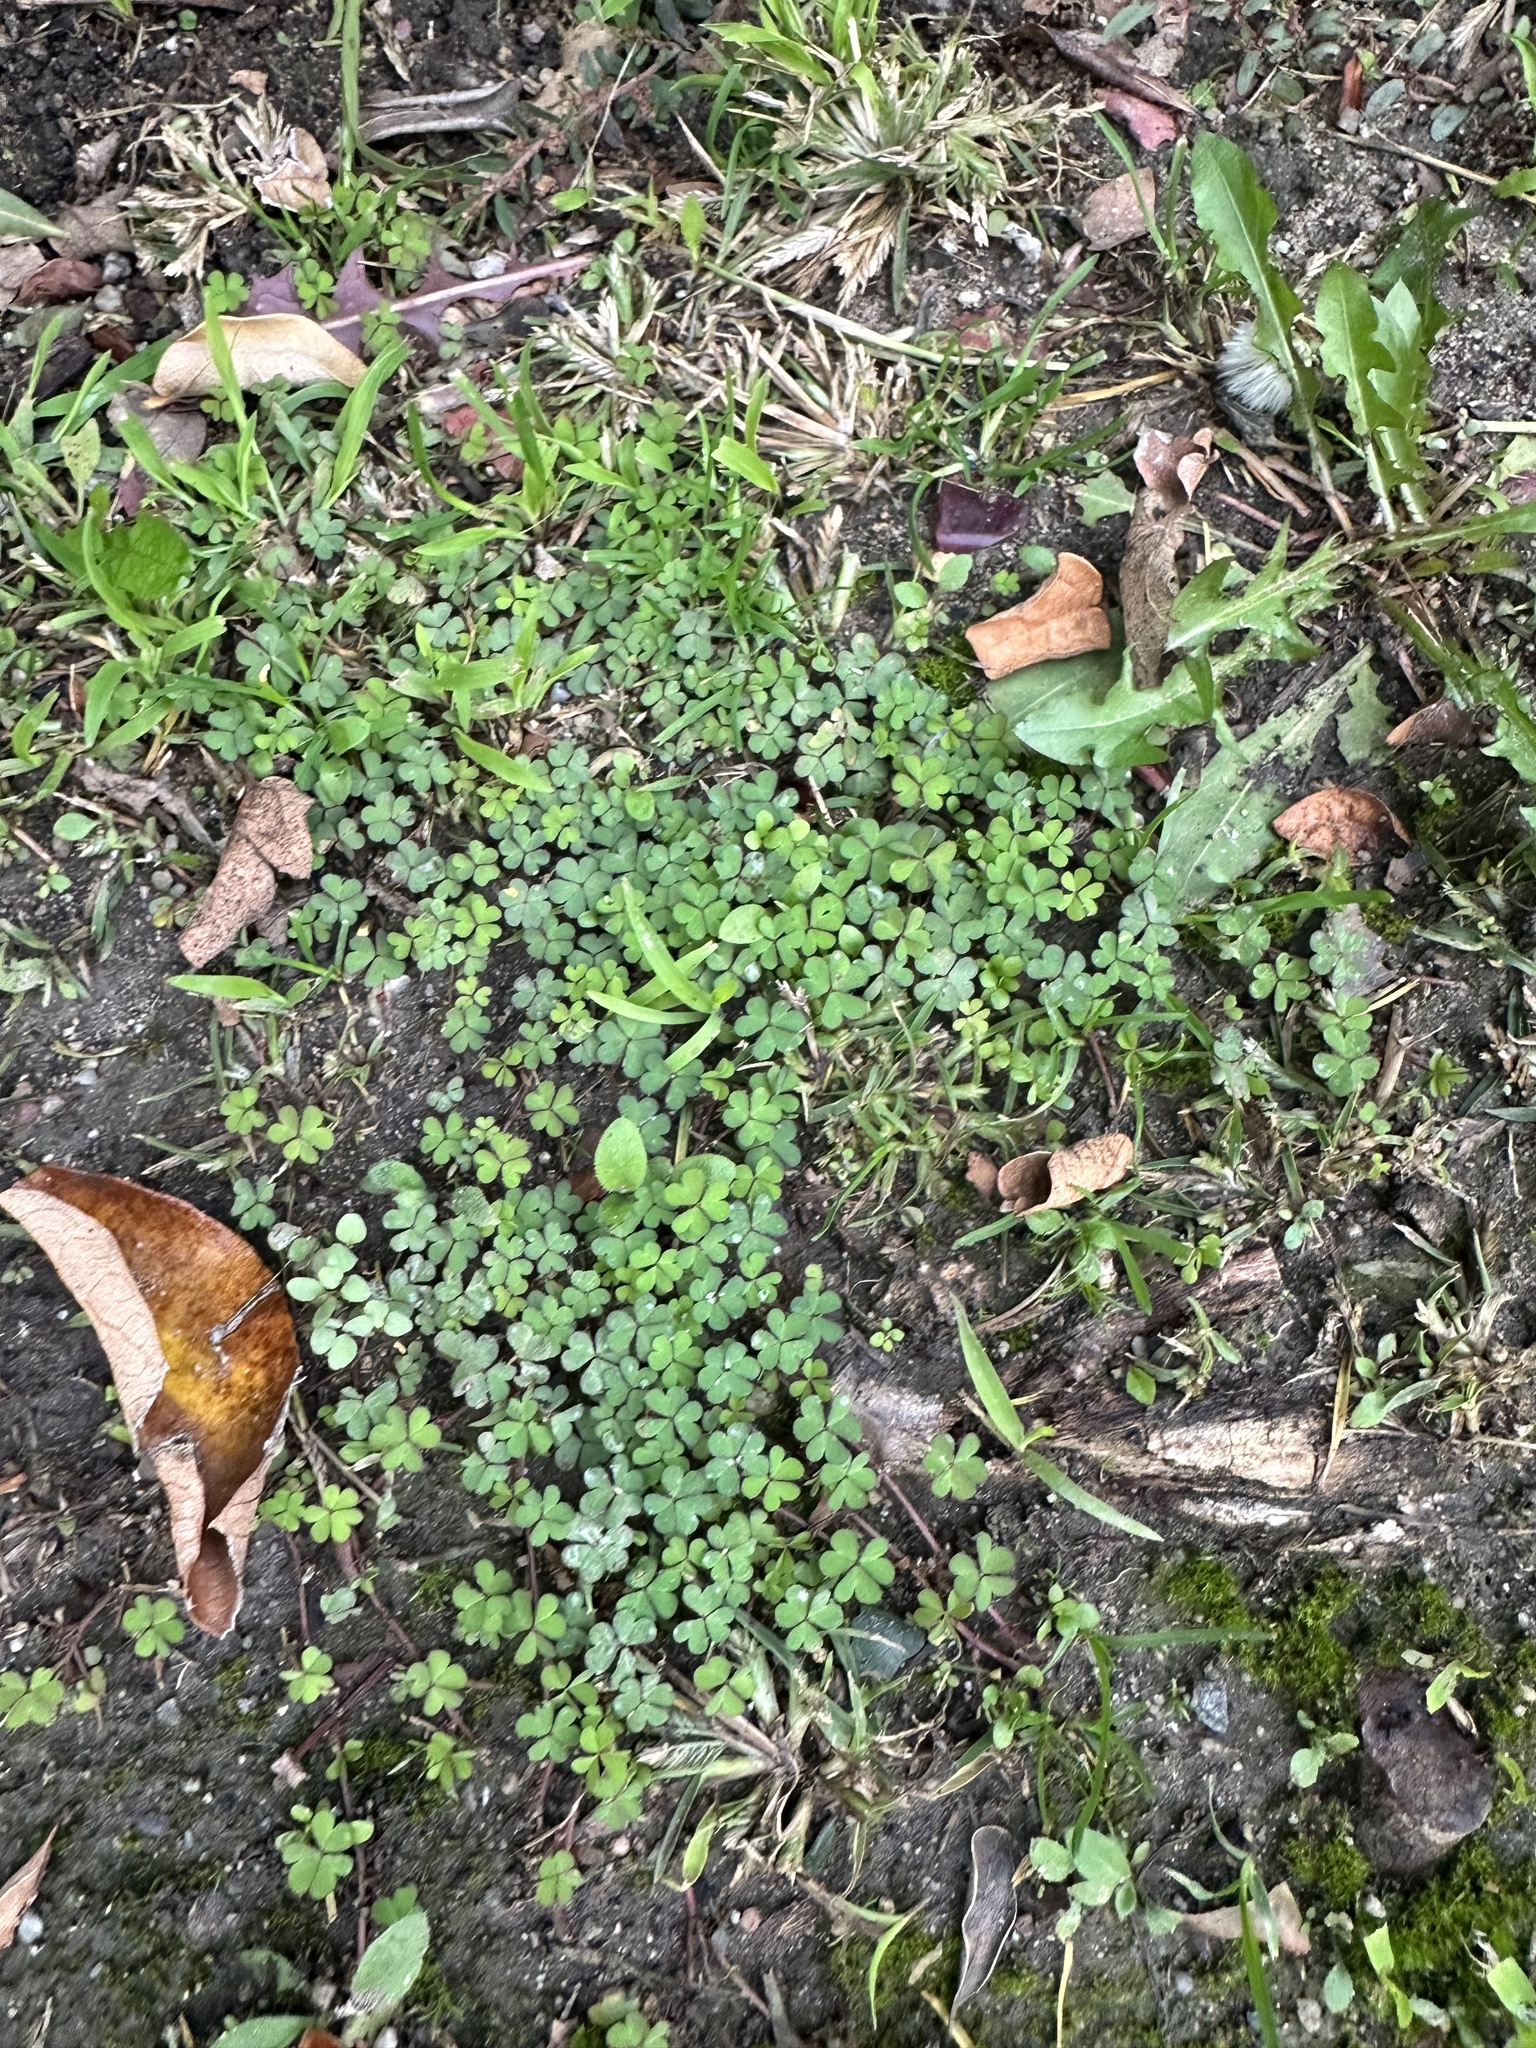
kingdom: Plantae
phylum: Tracheophyta
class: Magnoliopsida
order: Oxalidales
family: Oxalidaceae
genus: Oxalis
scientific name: Oxalis corniculata
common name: Procumbent yellow-sorrel
